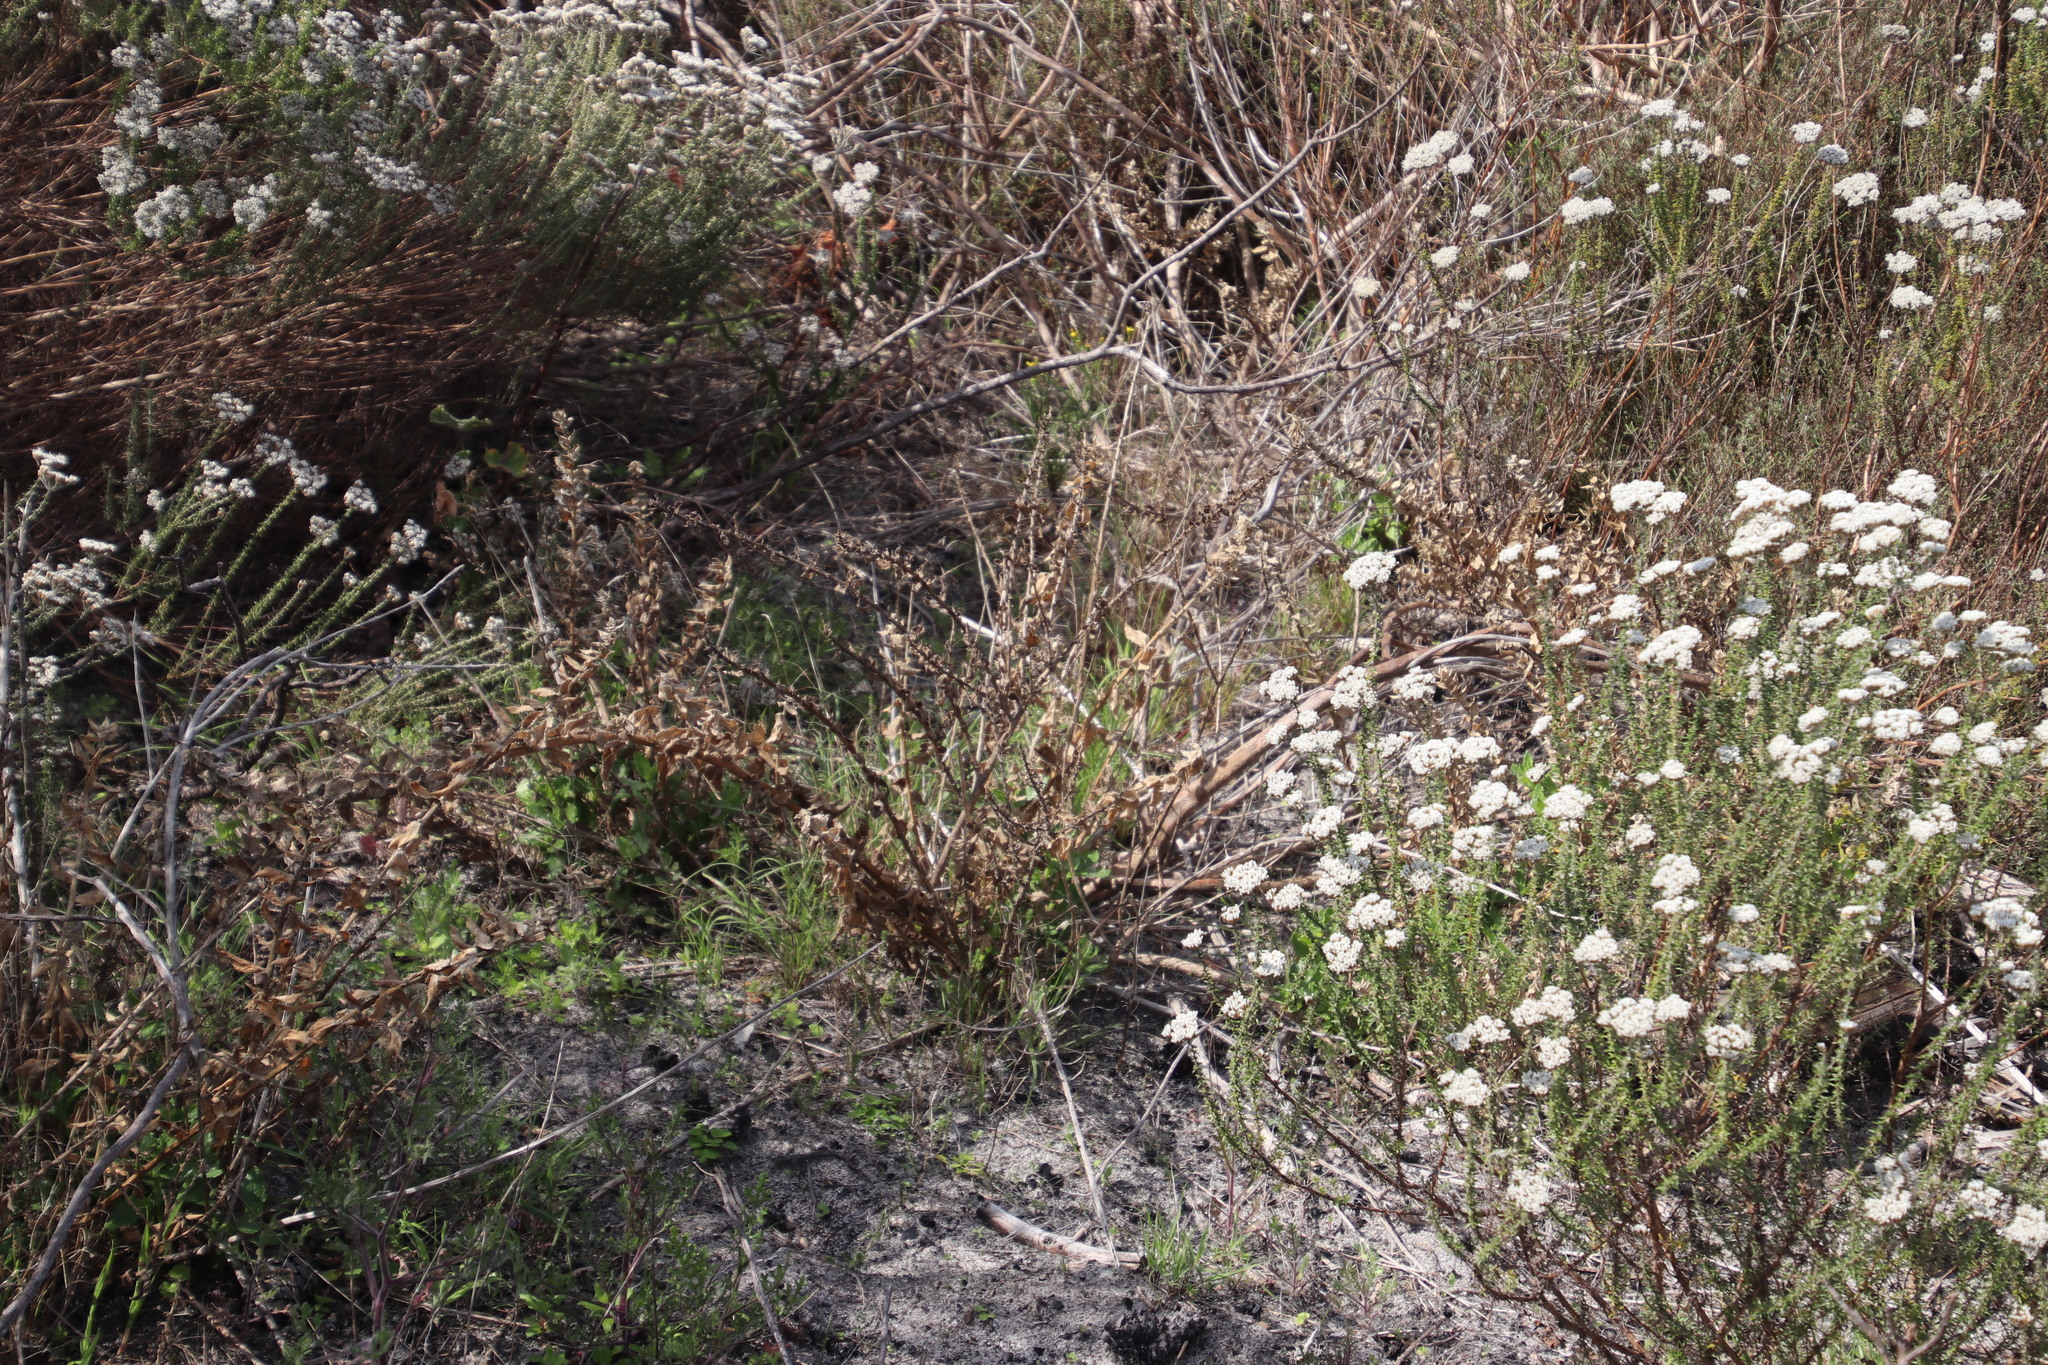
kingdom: Plantae
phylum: Tracheophyta
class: Magnoliopsida
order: Lamiales
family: Scrophulariaceae
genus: Oftia
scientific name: Oftia africana
